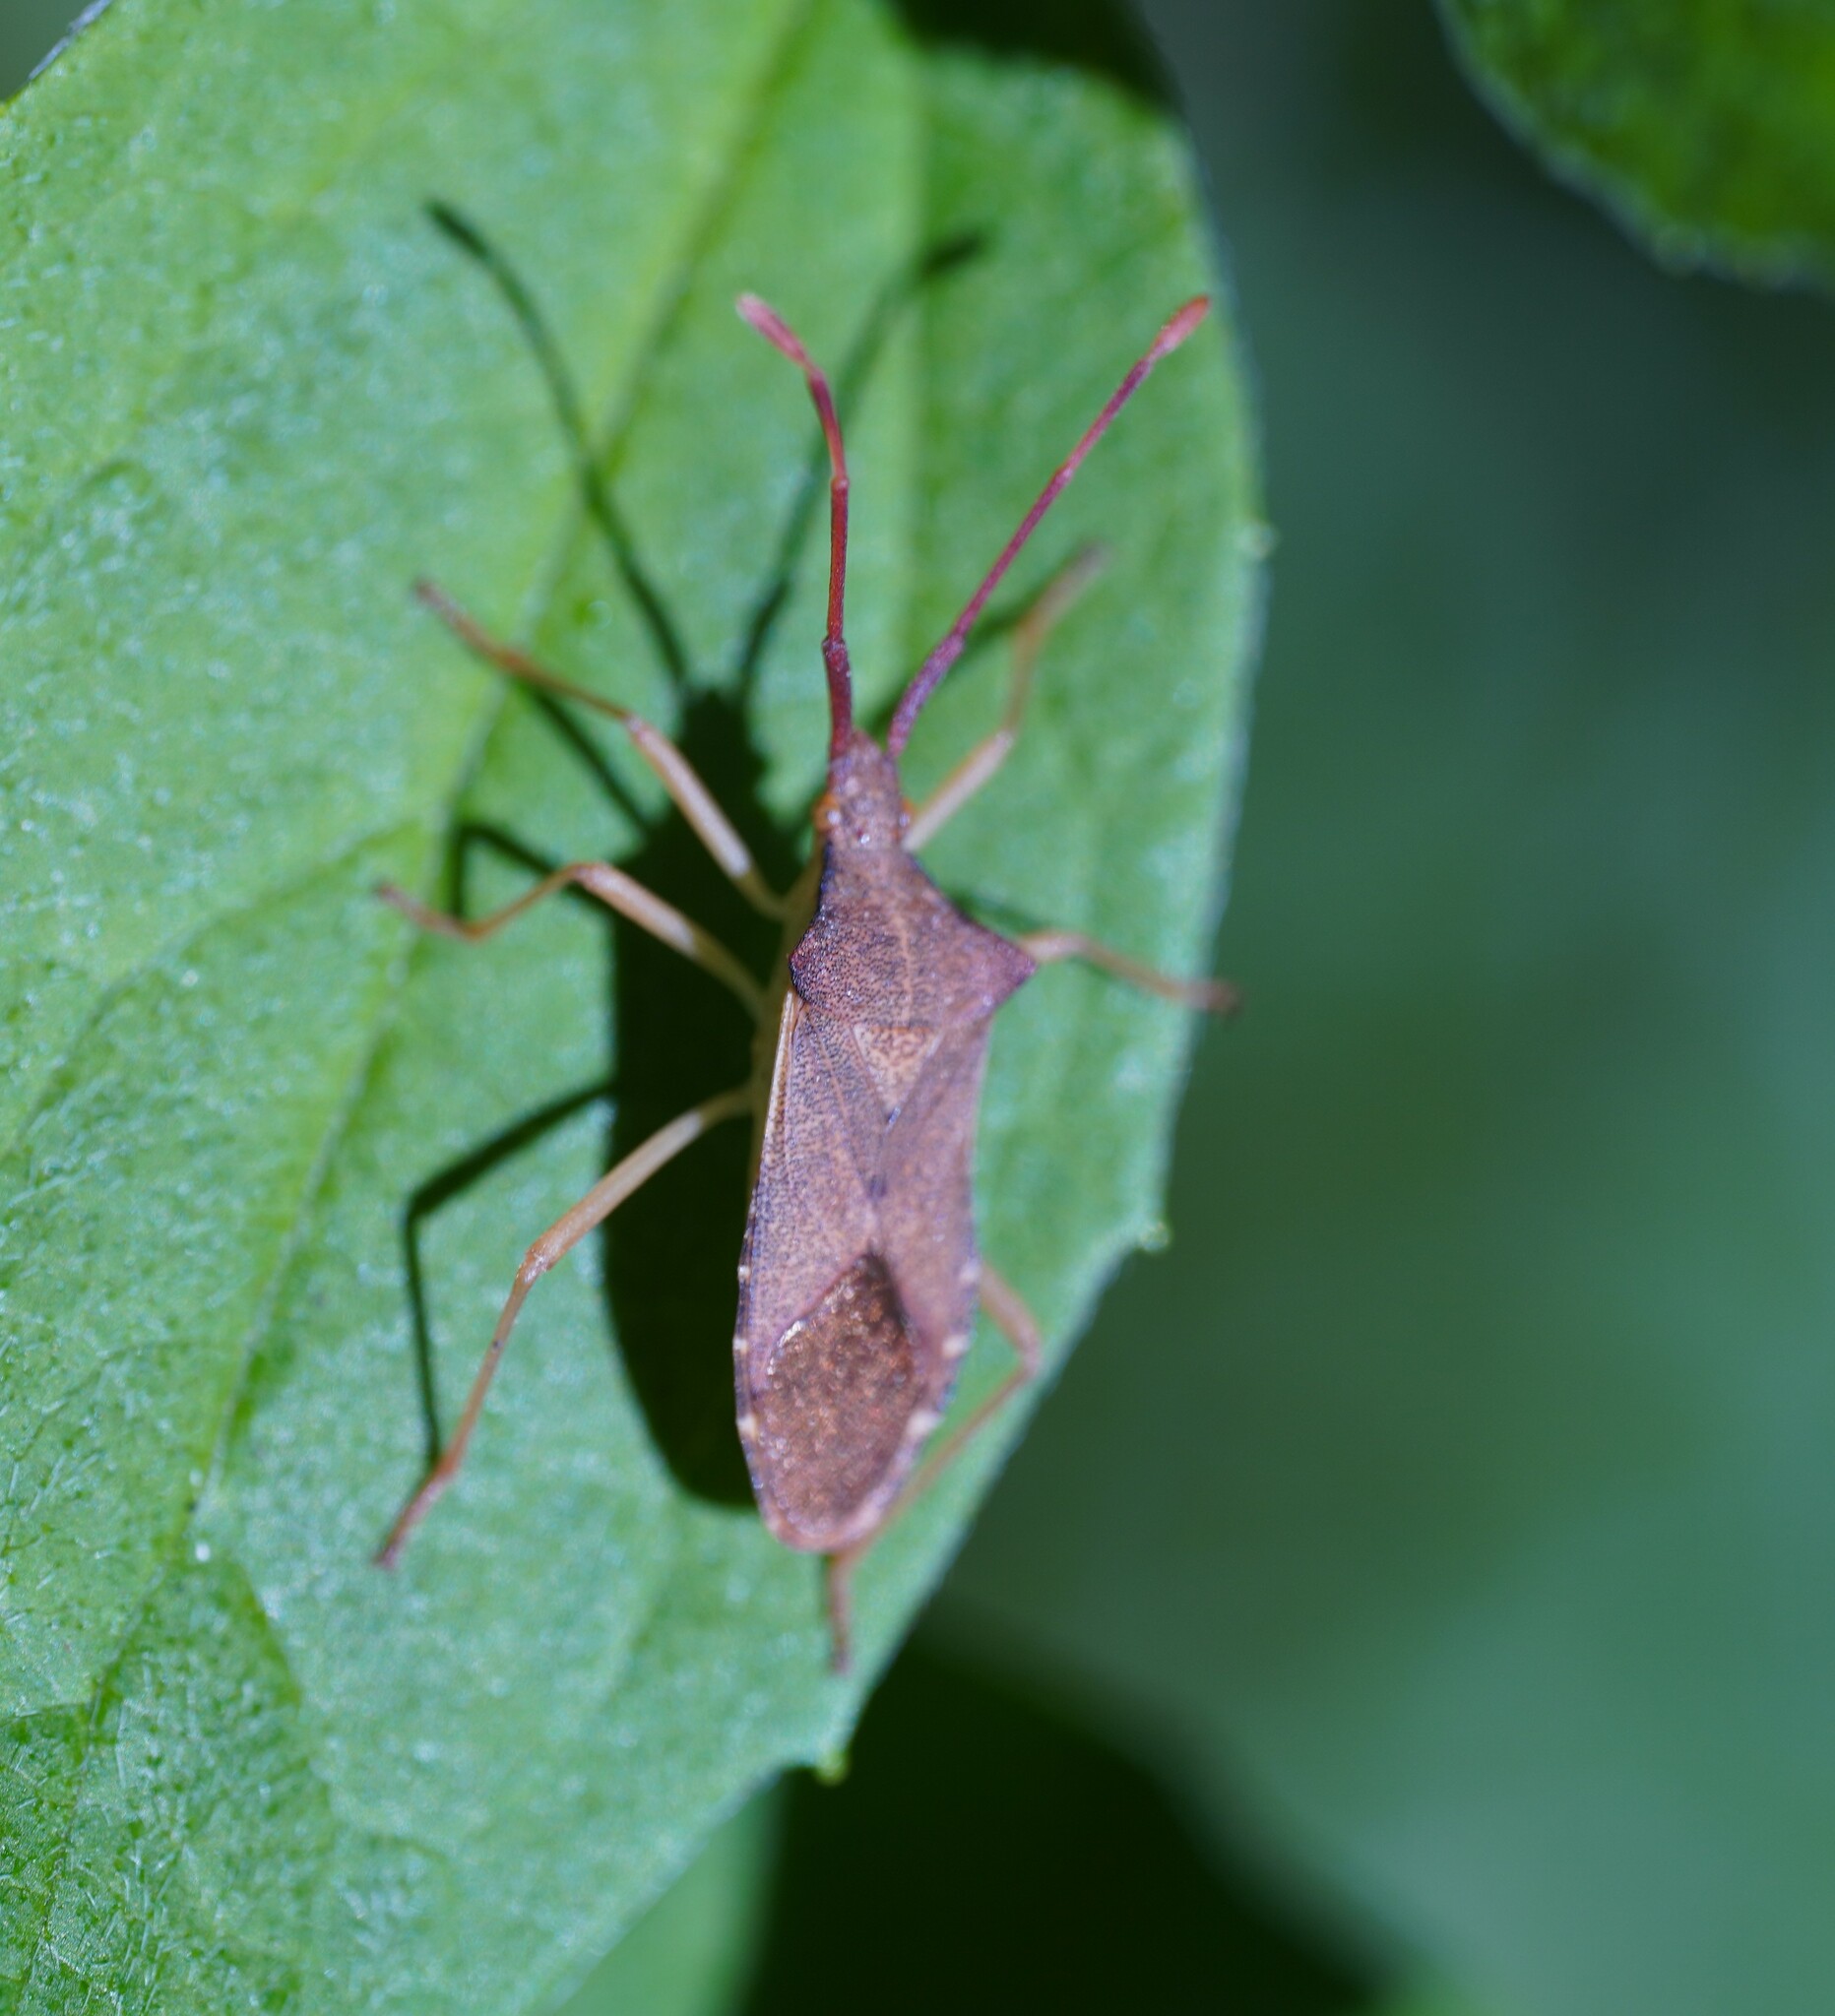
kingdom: Animalia
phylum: Arthropoda
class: Insecta
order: Hemiptera
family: Coreidae
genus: Gonocerus
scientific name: Gonocerus acuteangulatus
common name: Box bug
